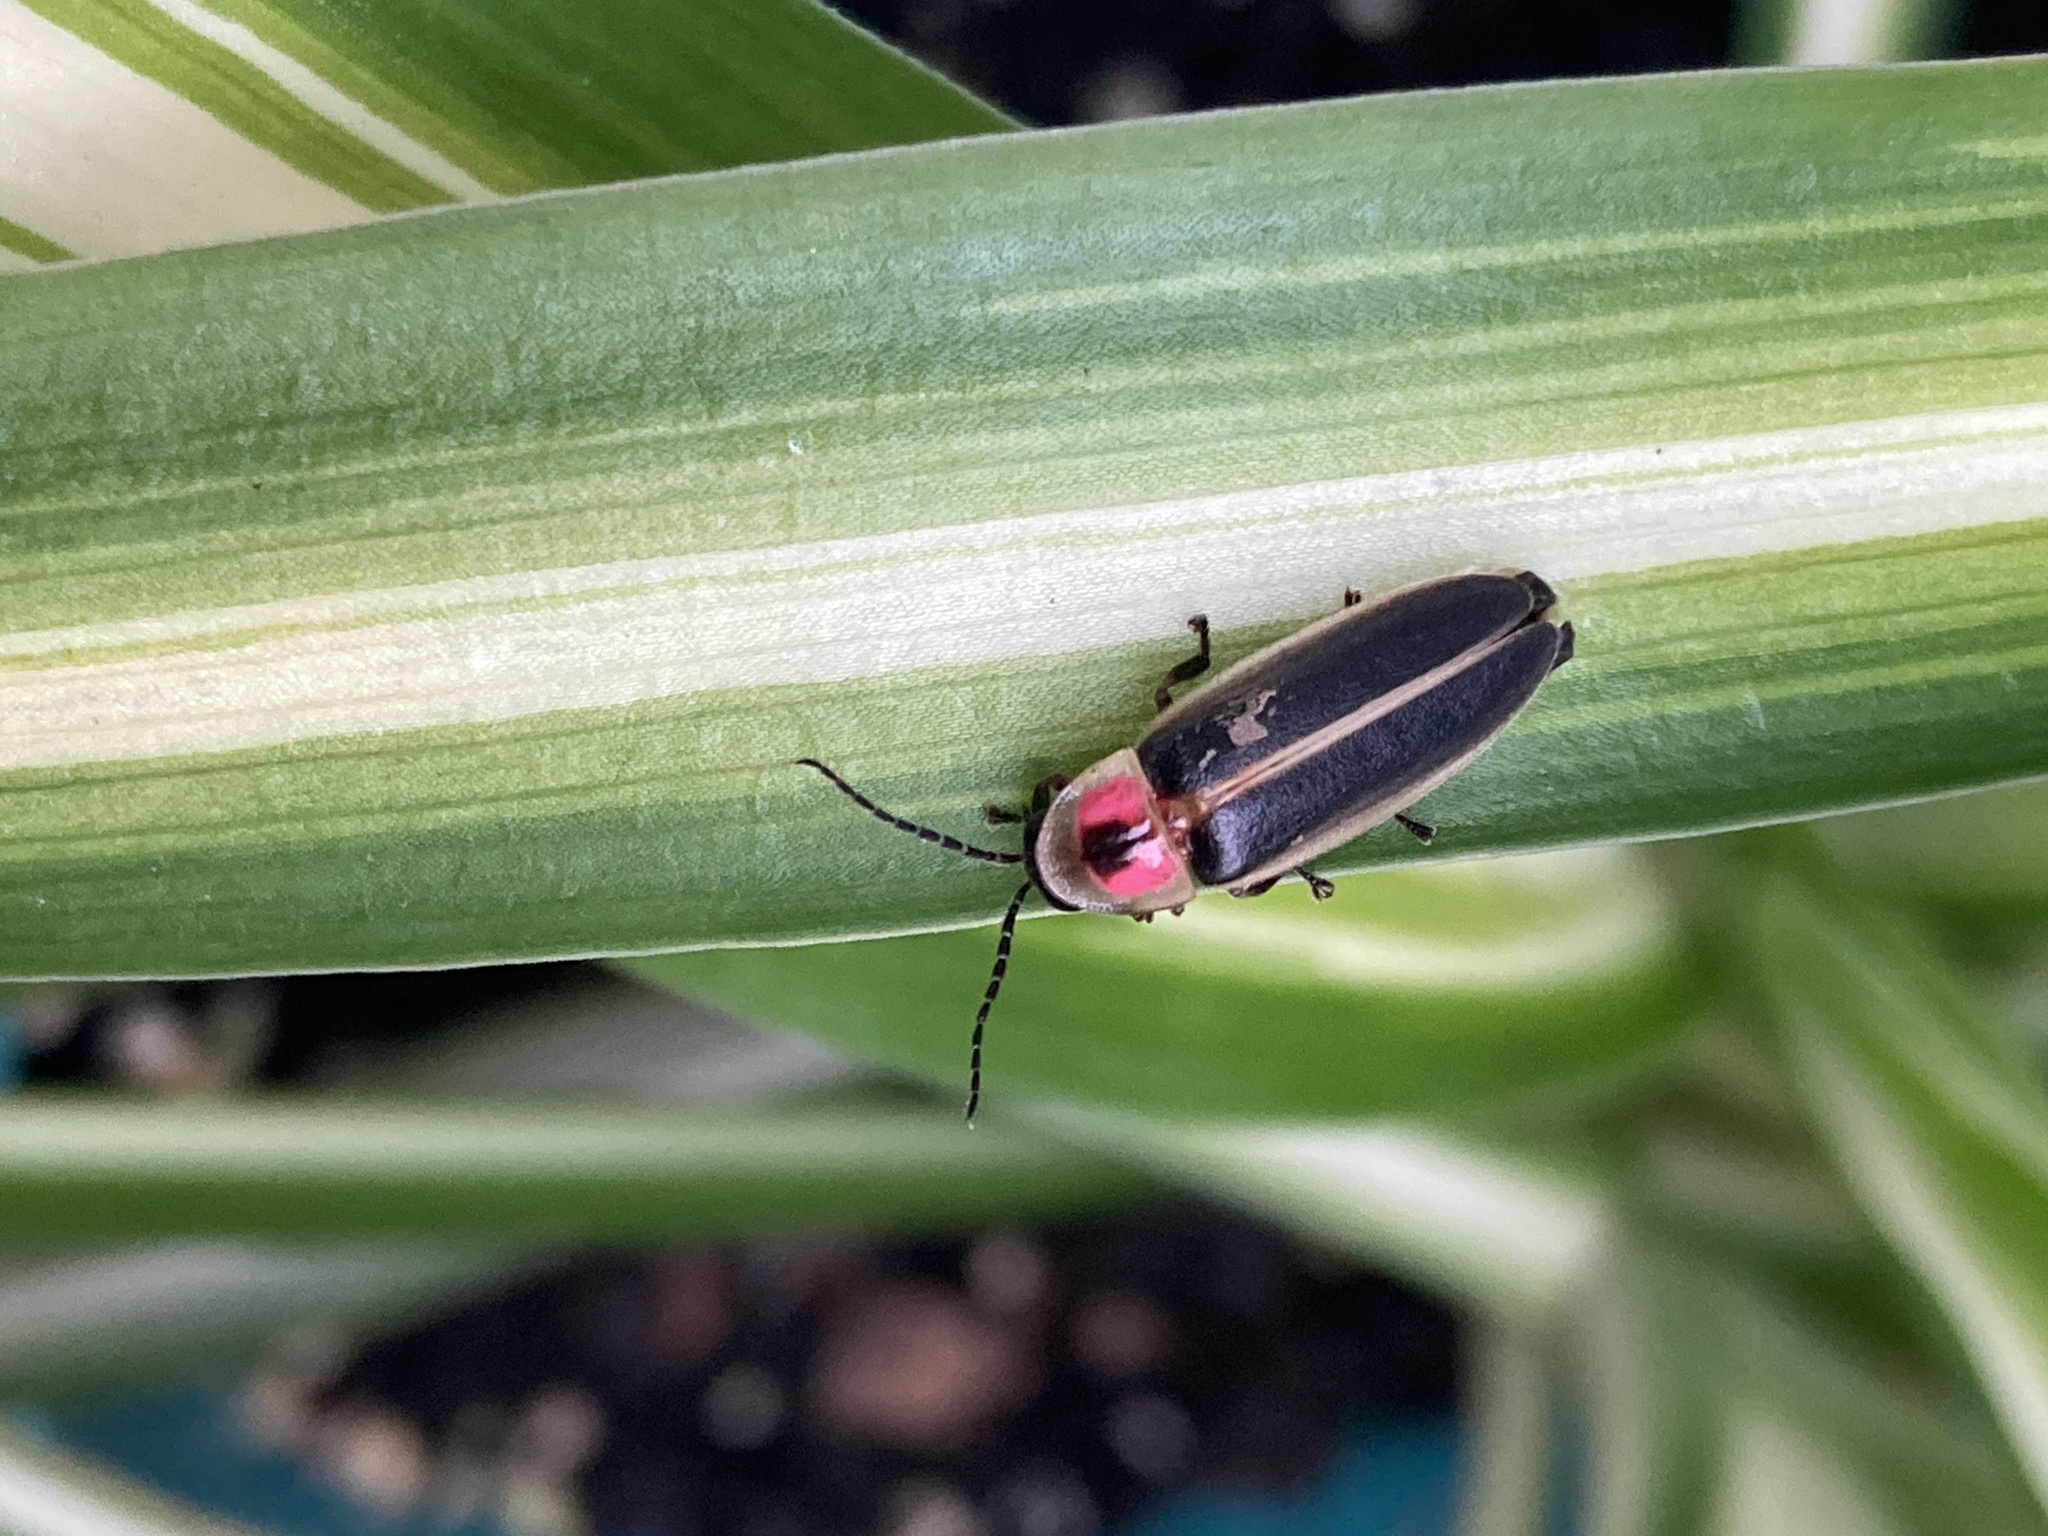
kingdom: Animalia
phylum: Arthropoda
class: Insecta
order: Coleoptera
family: Lampyridae
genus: Photinus
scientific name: Photinus pyralis
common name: Big dipper firefly
